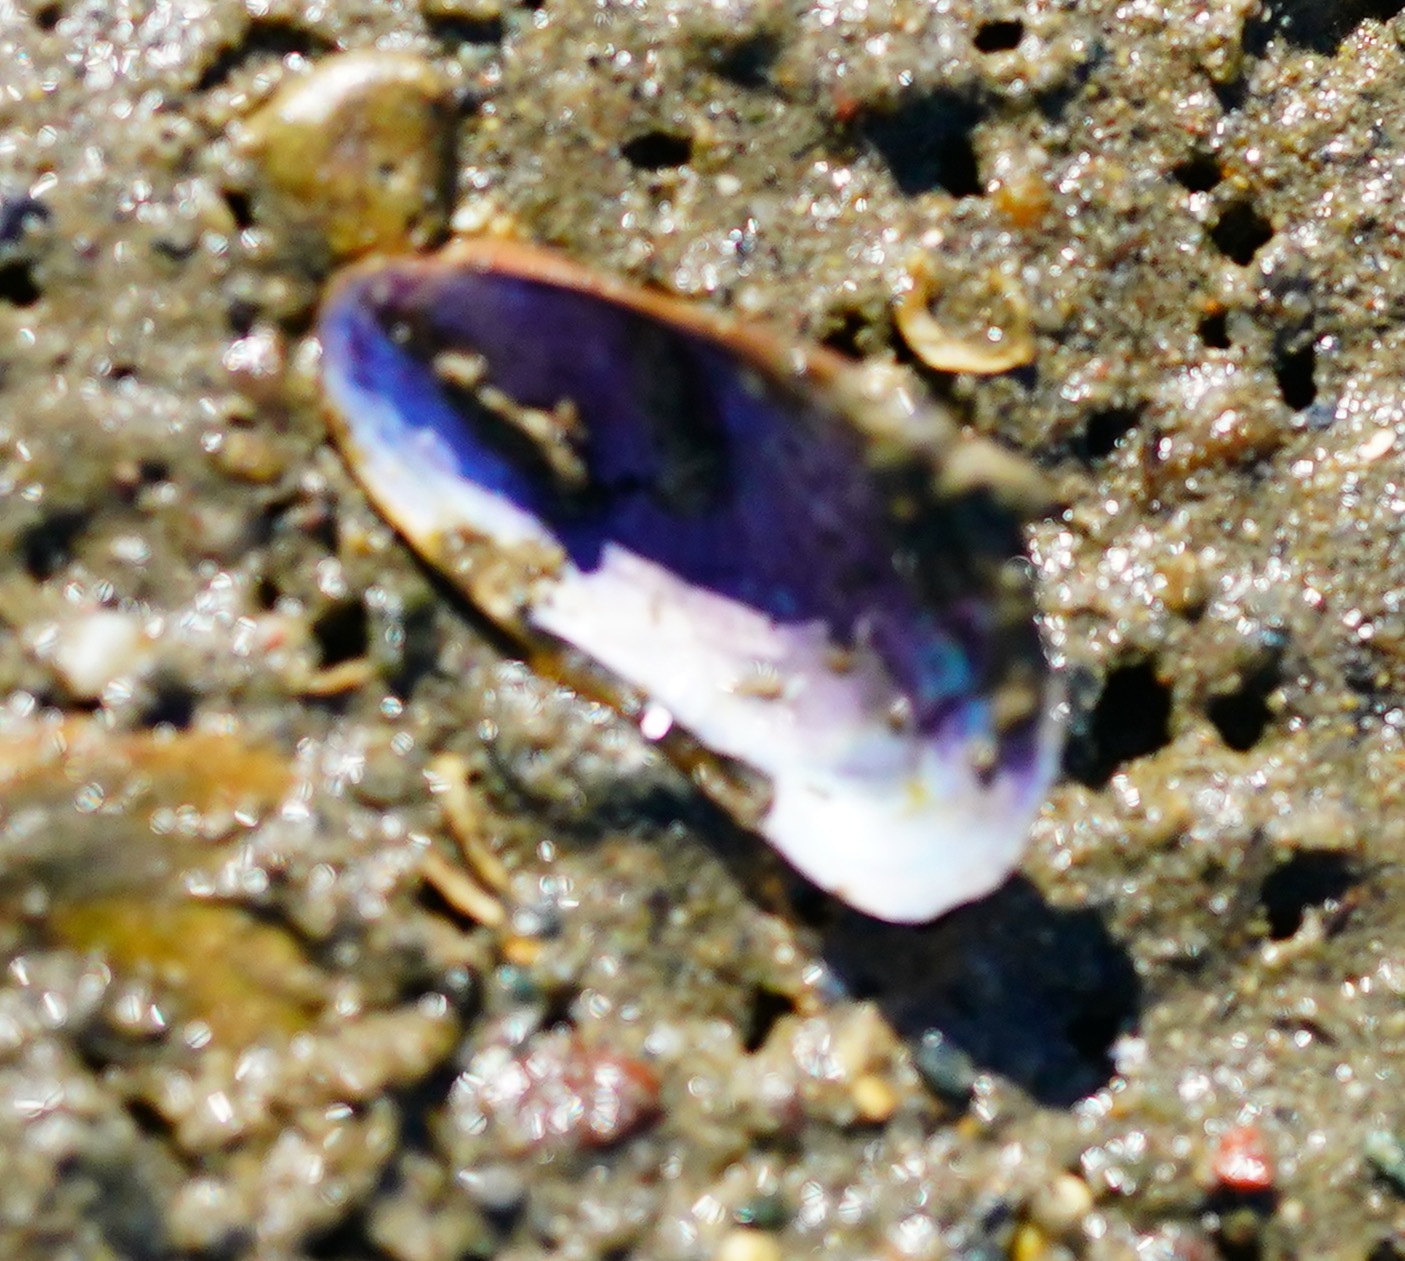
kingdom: Animalia
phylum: Mollusca
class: Bivalvia
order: Mytilida
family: Mytilidae
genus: Arcuatula
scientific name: Arcuatula senhousia
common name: Asian mussel
